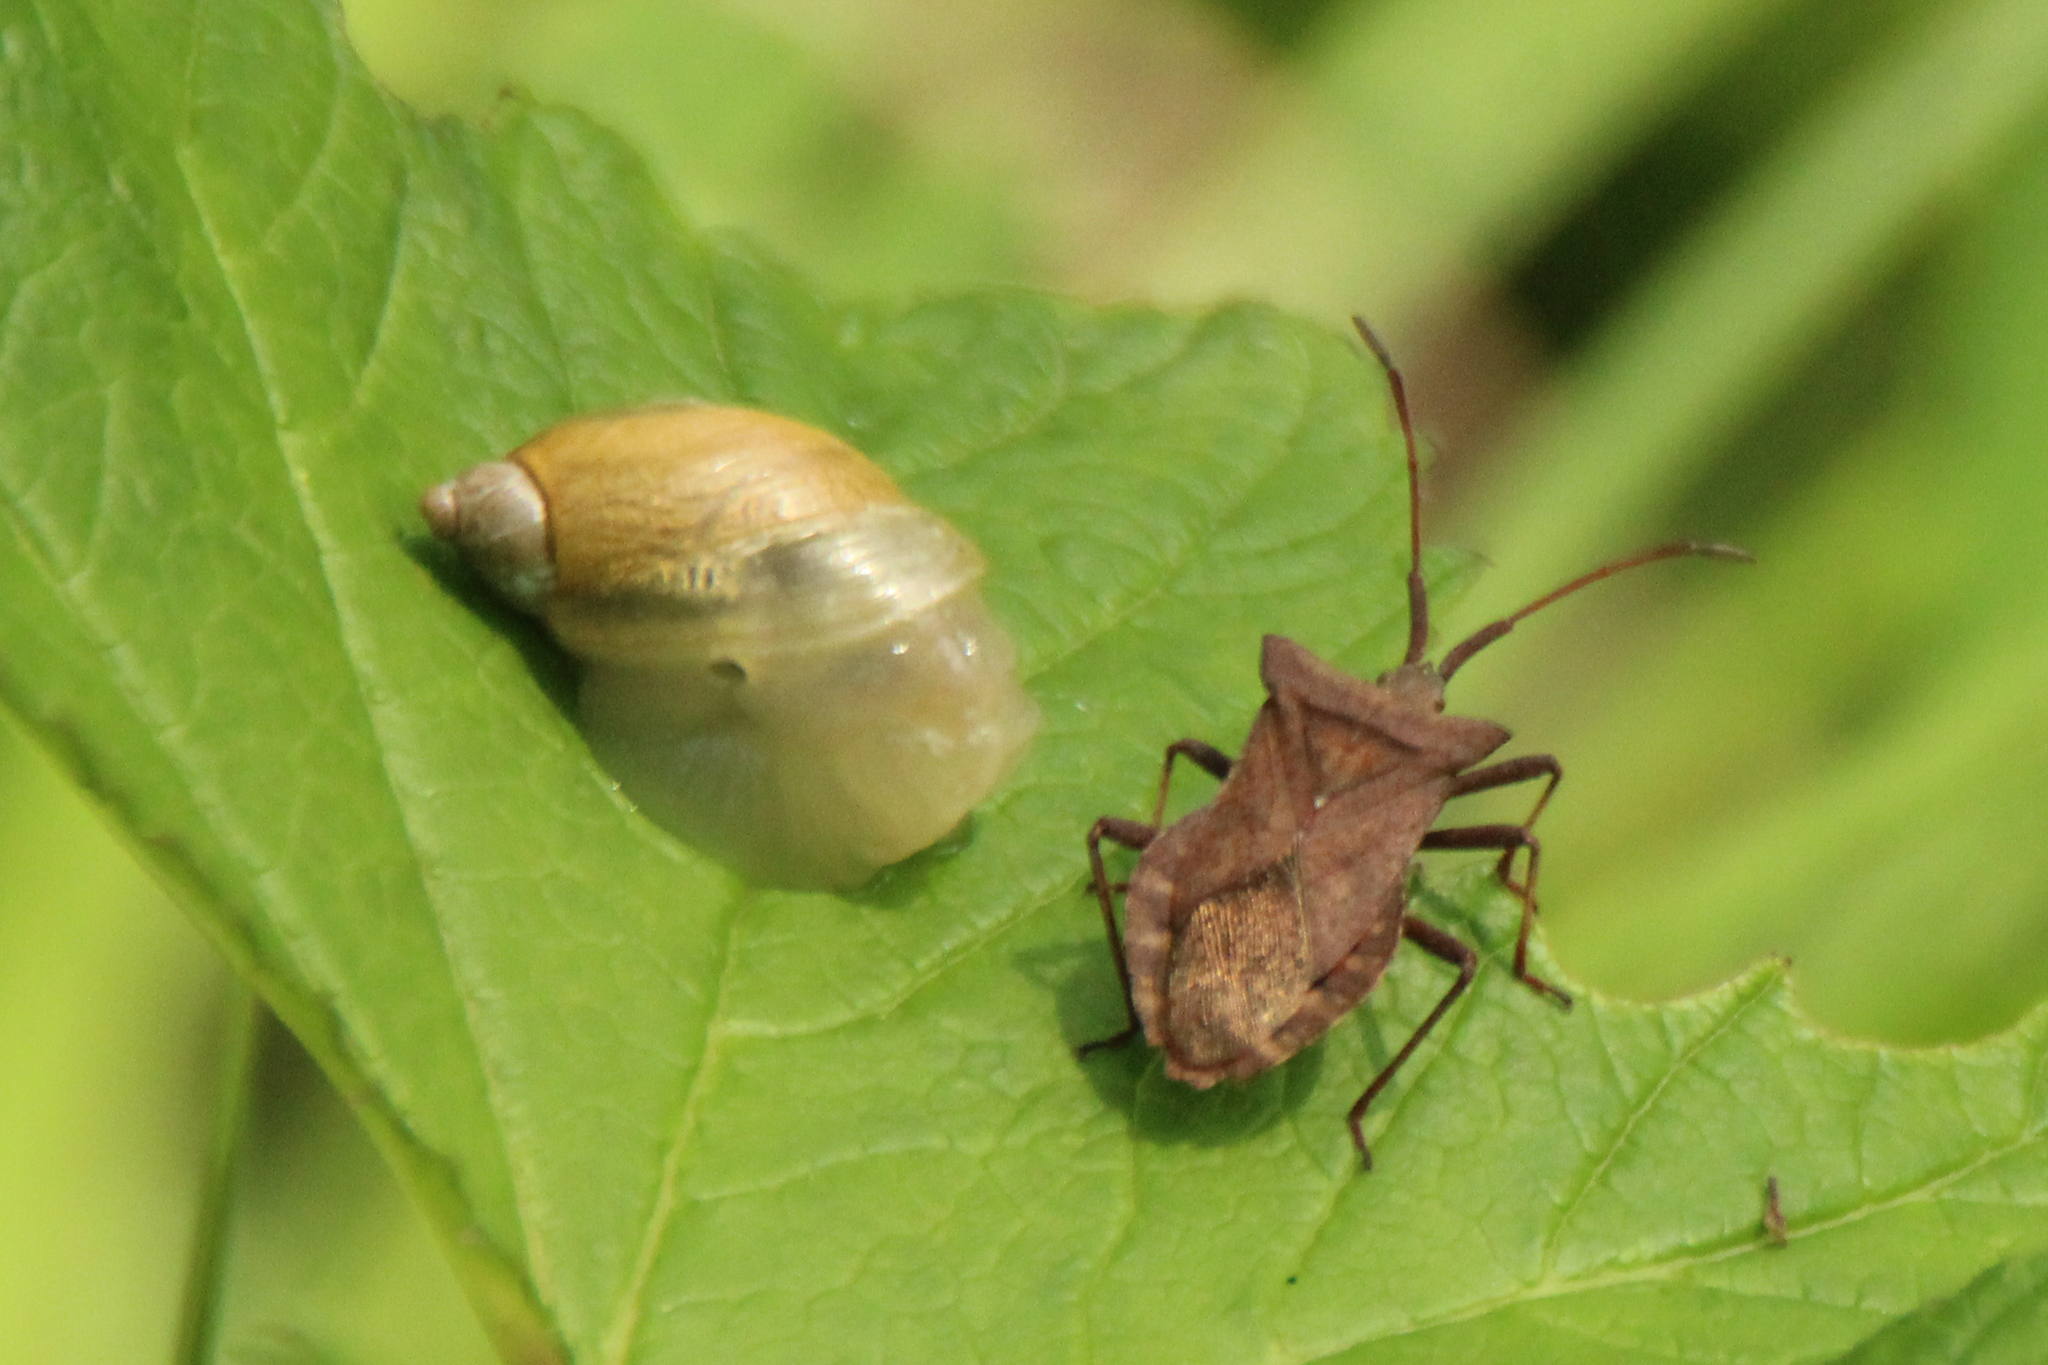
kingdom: Animalia
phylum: Arthropoda
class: Insecta
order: Hemiptera
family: Coreidae
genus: Coreus
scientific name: Coreus marginatus
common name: Dock bug
